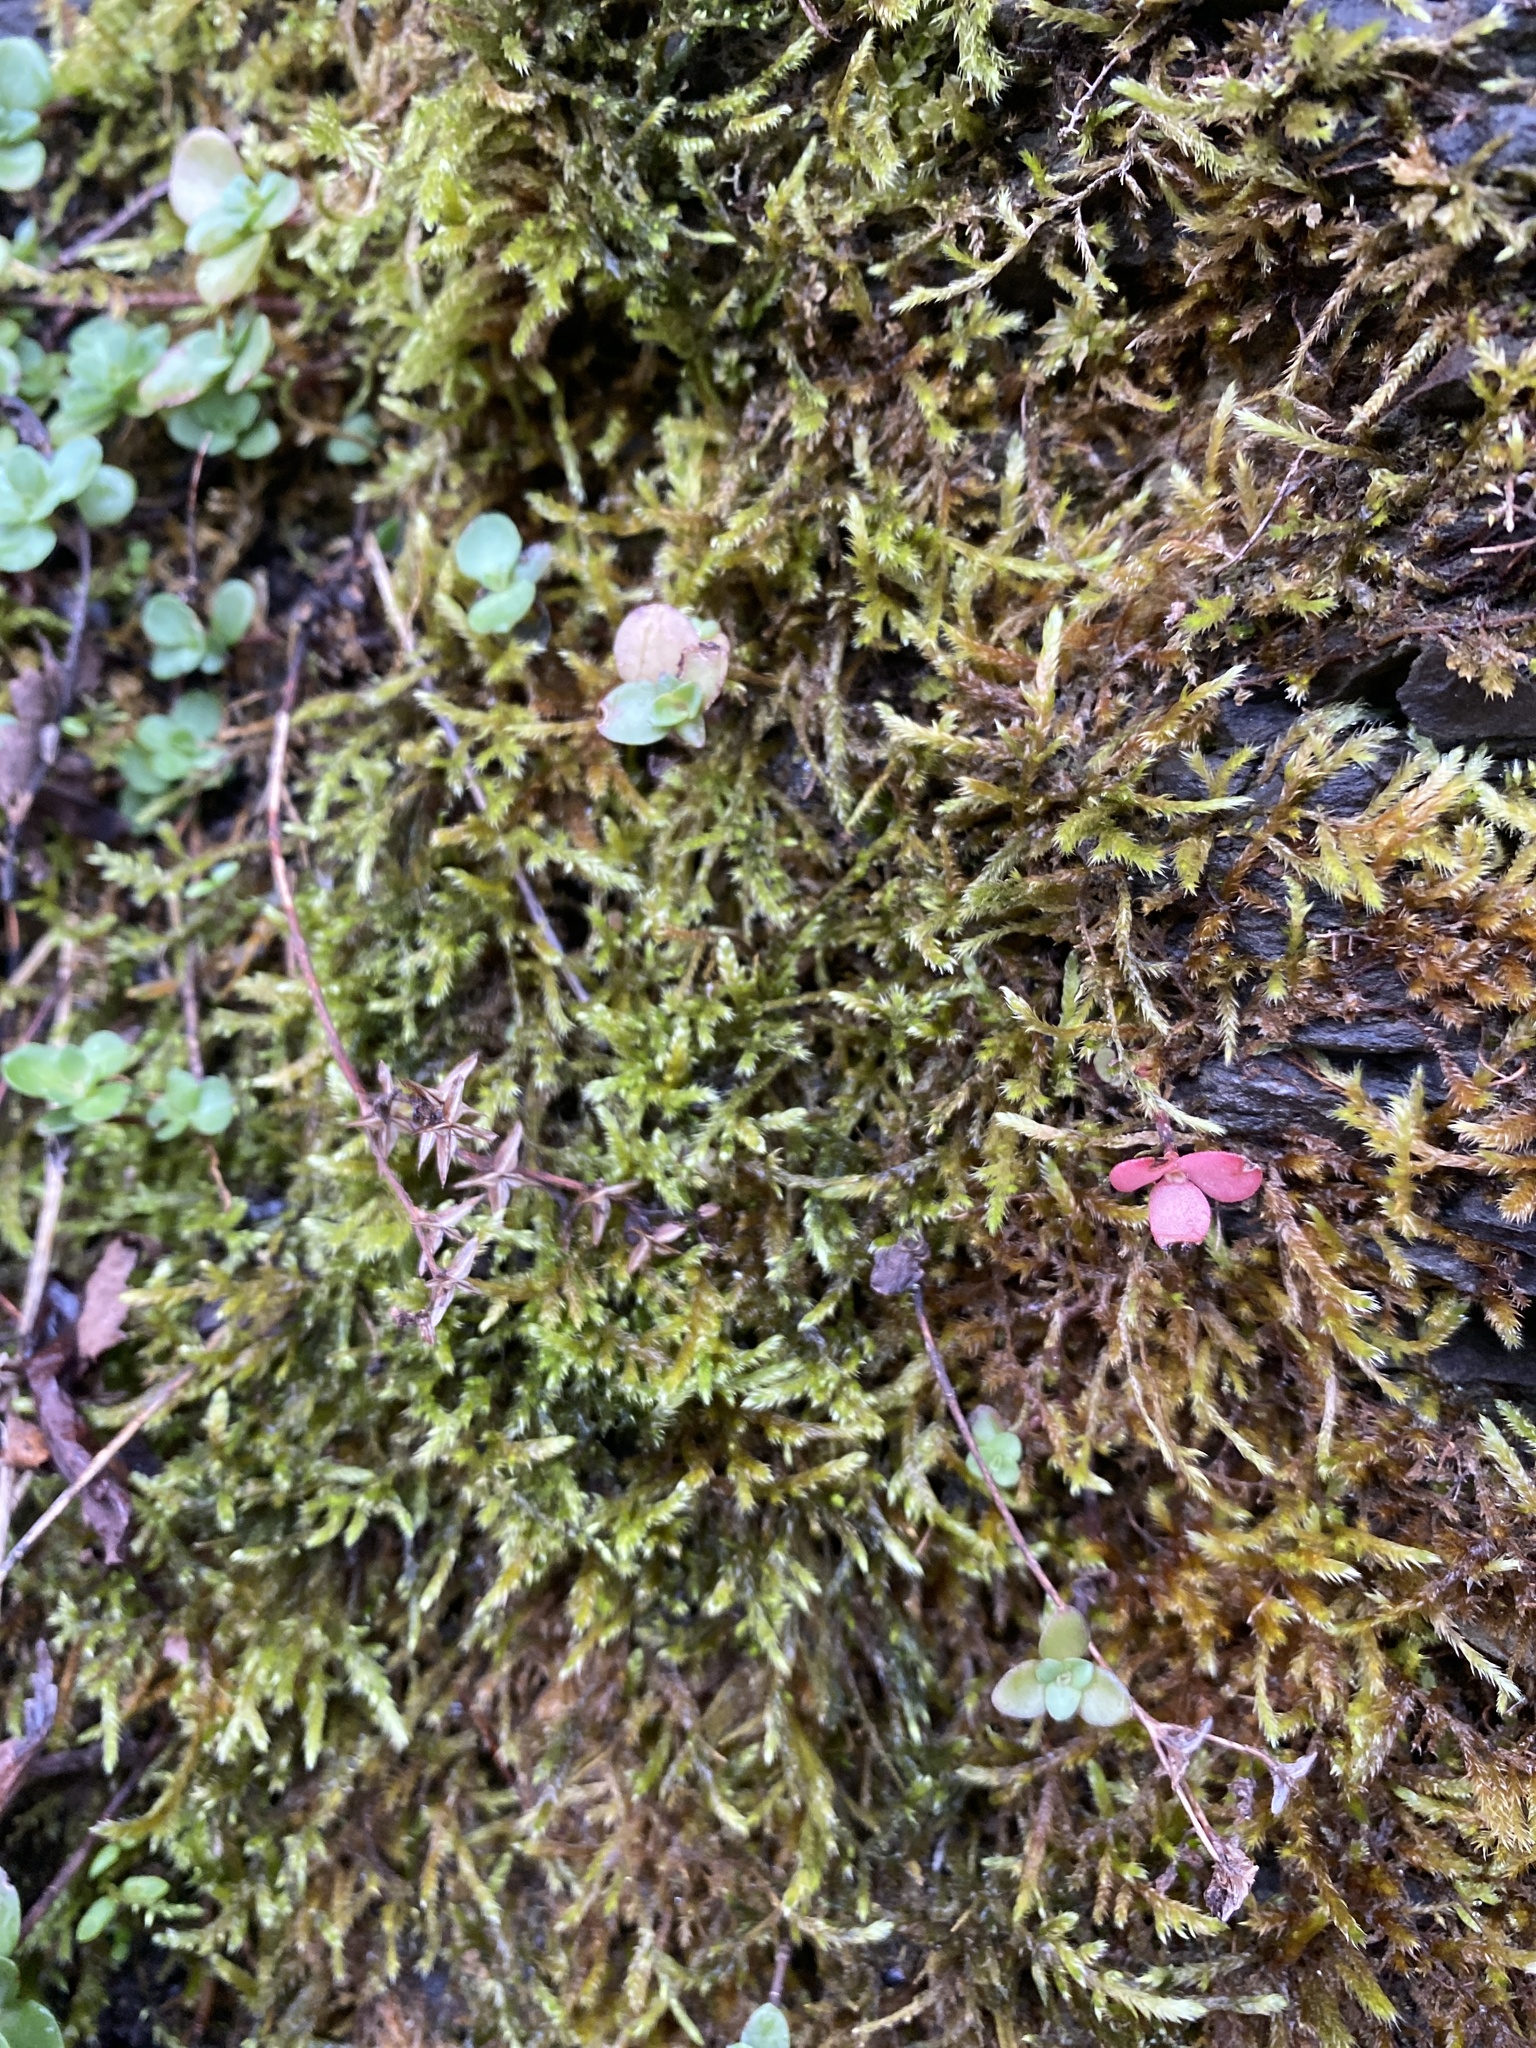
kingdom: Plantae
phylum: Tracheophyta
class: Magnoliopsida
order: Saxifragales
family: Crassulaceae
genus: Sedum
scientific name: Sedum ternatum
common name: Wild stonecrop
